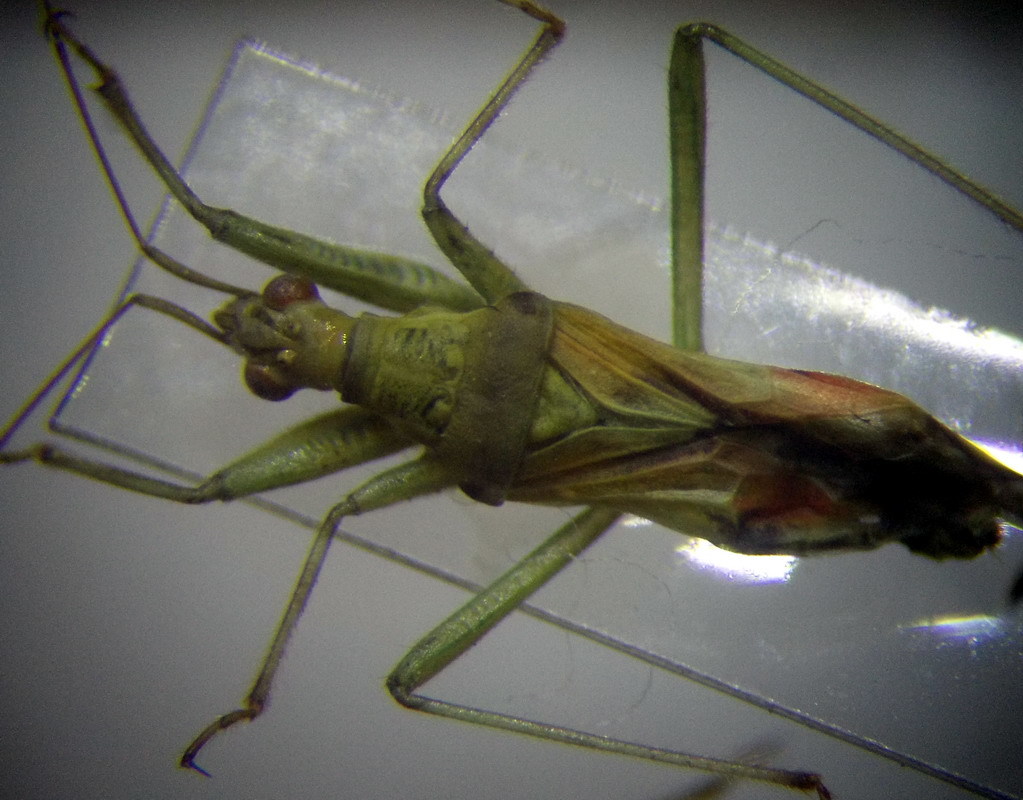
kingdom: Animalia
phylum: Arthropoda
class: Insecta
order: Hemiptera
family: Nabidae
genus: Nabis
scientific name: Nabis pallidus
